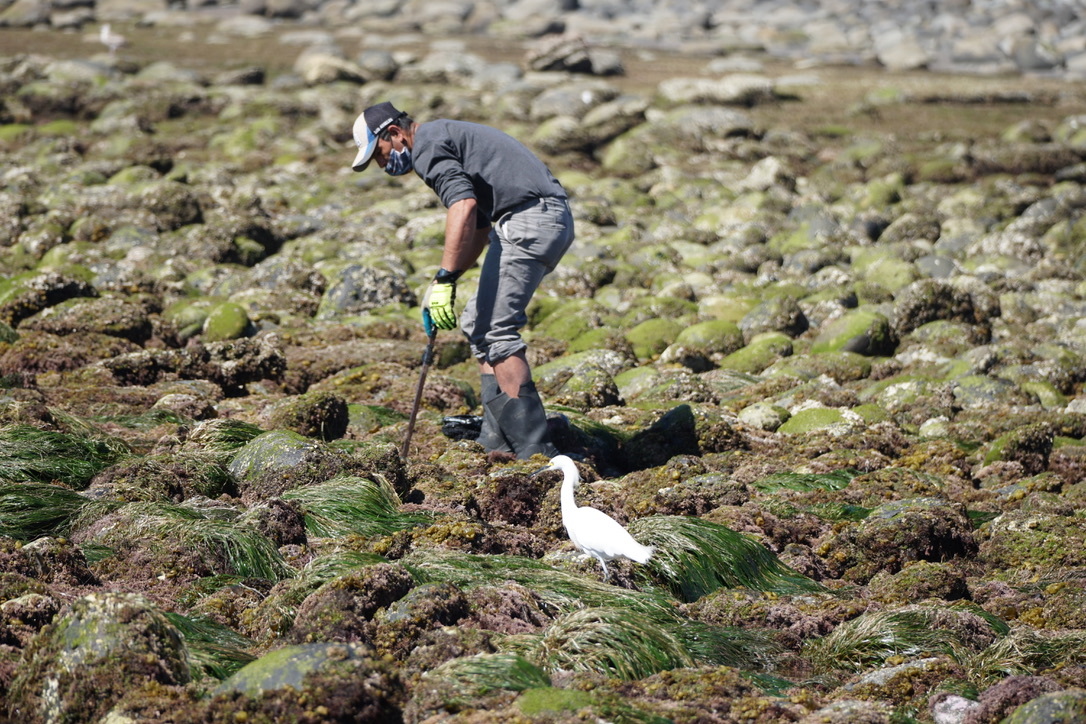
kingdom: Animalia
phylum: Chordata
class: Aves
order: Pelecaniformes
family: Ardeidae
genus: Egretta
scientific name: Egretta thula
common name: Snowy egret
